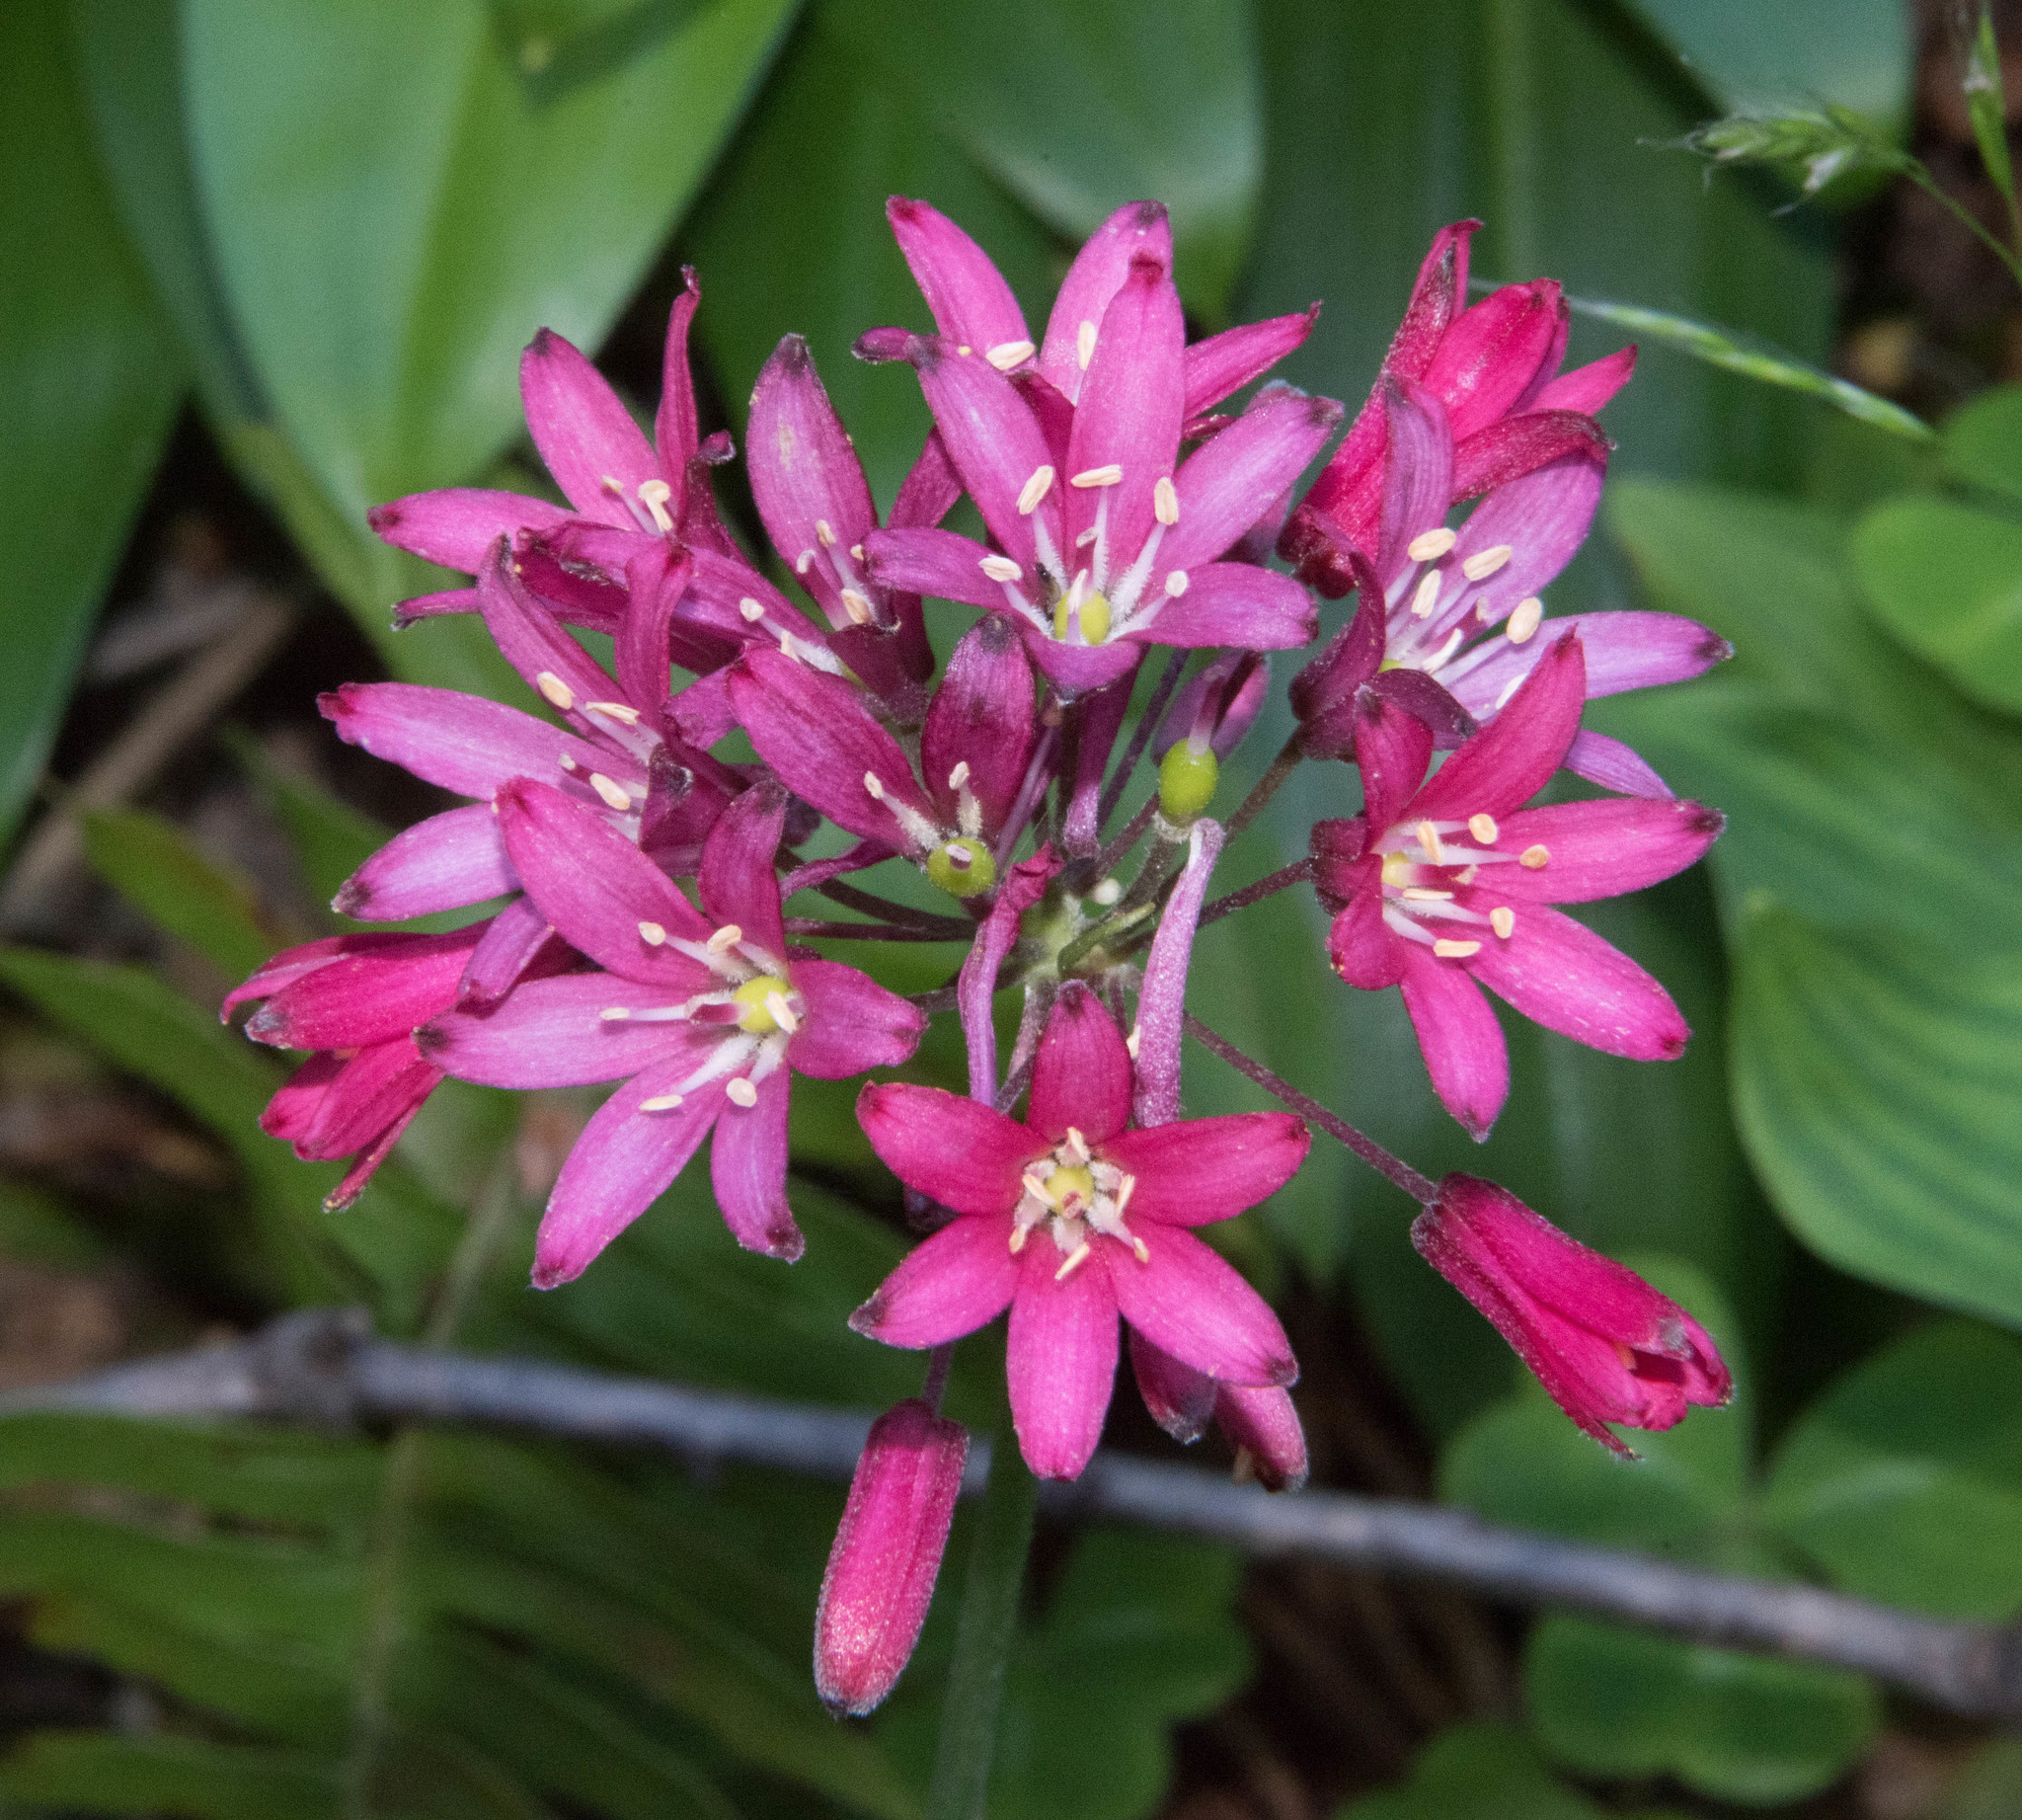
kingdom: Plantae
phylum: Tracheophyta
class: Liliopsida
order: Liliales
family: Liliaceae
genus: Clintonia
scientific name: Clintonia andrewsiana
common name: Red clintonia
